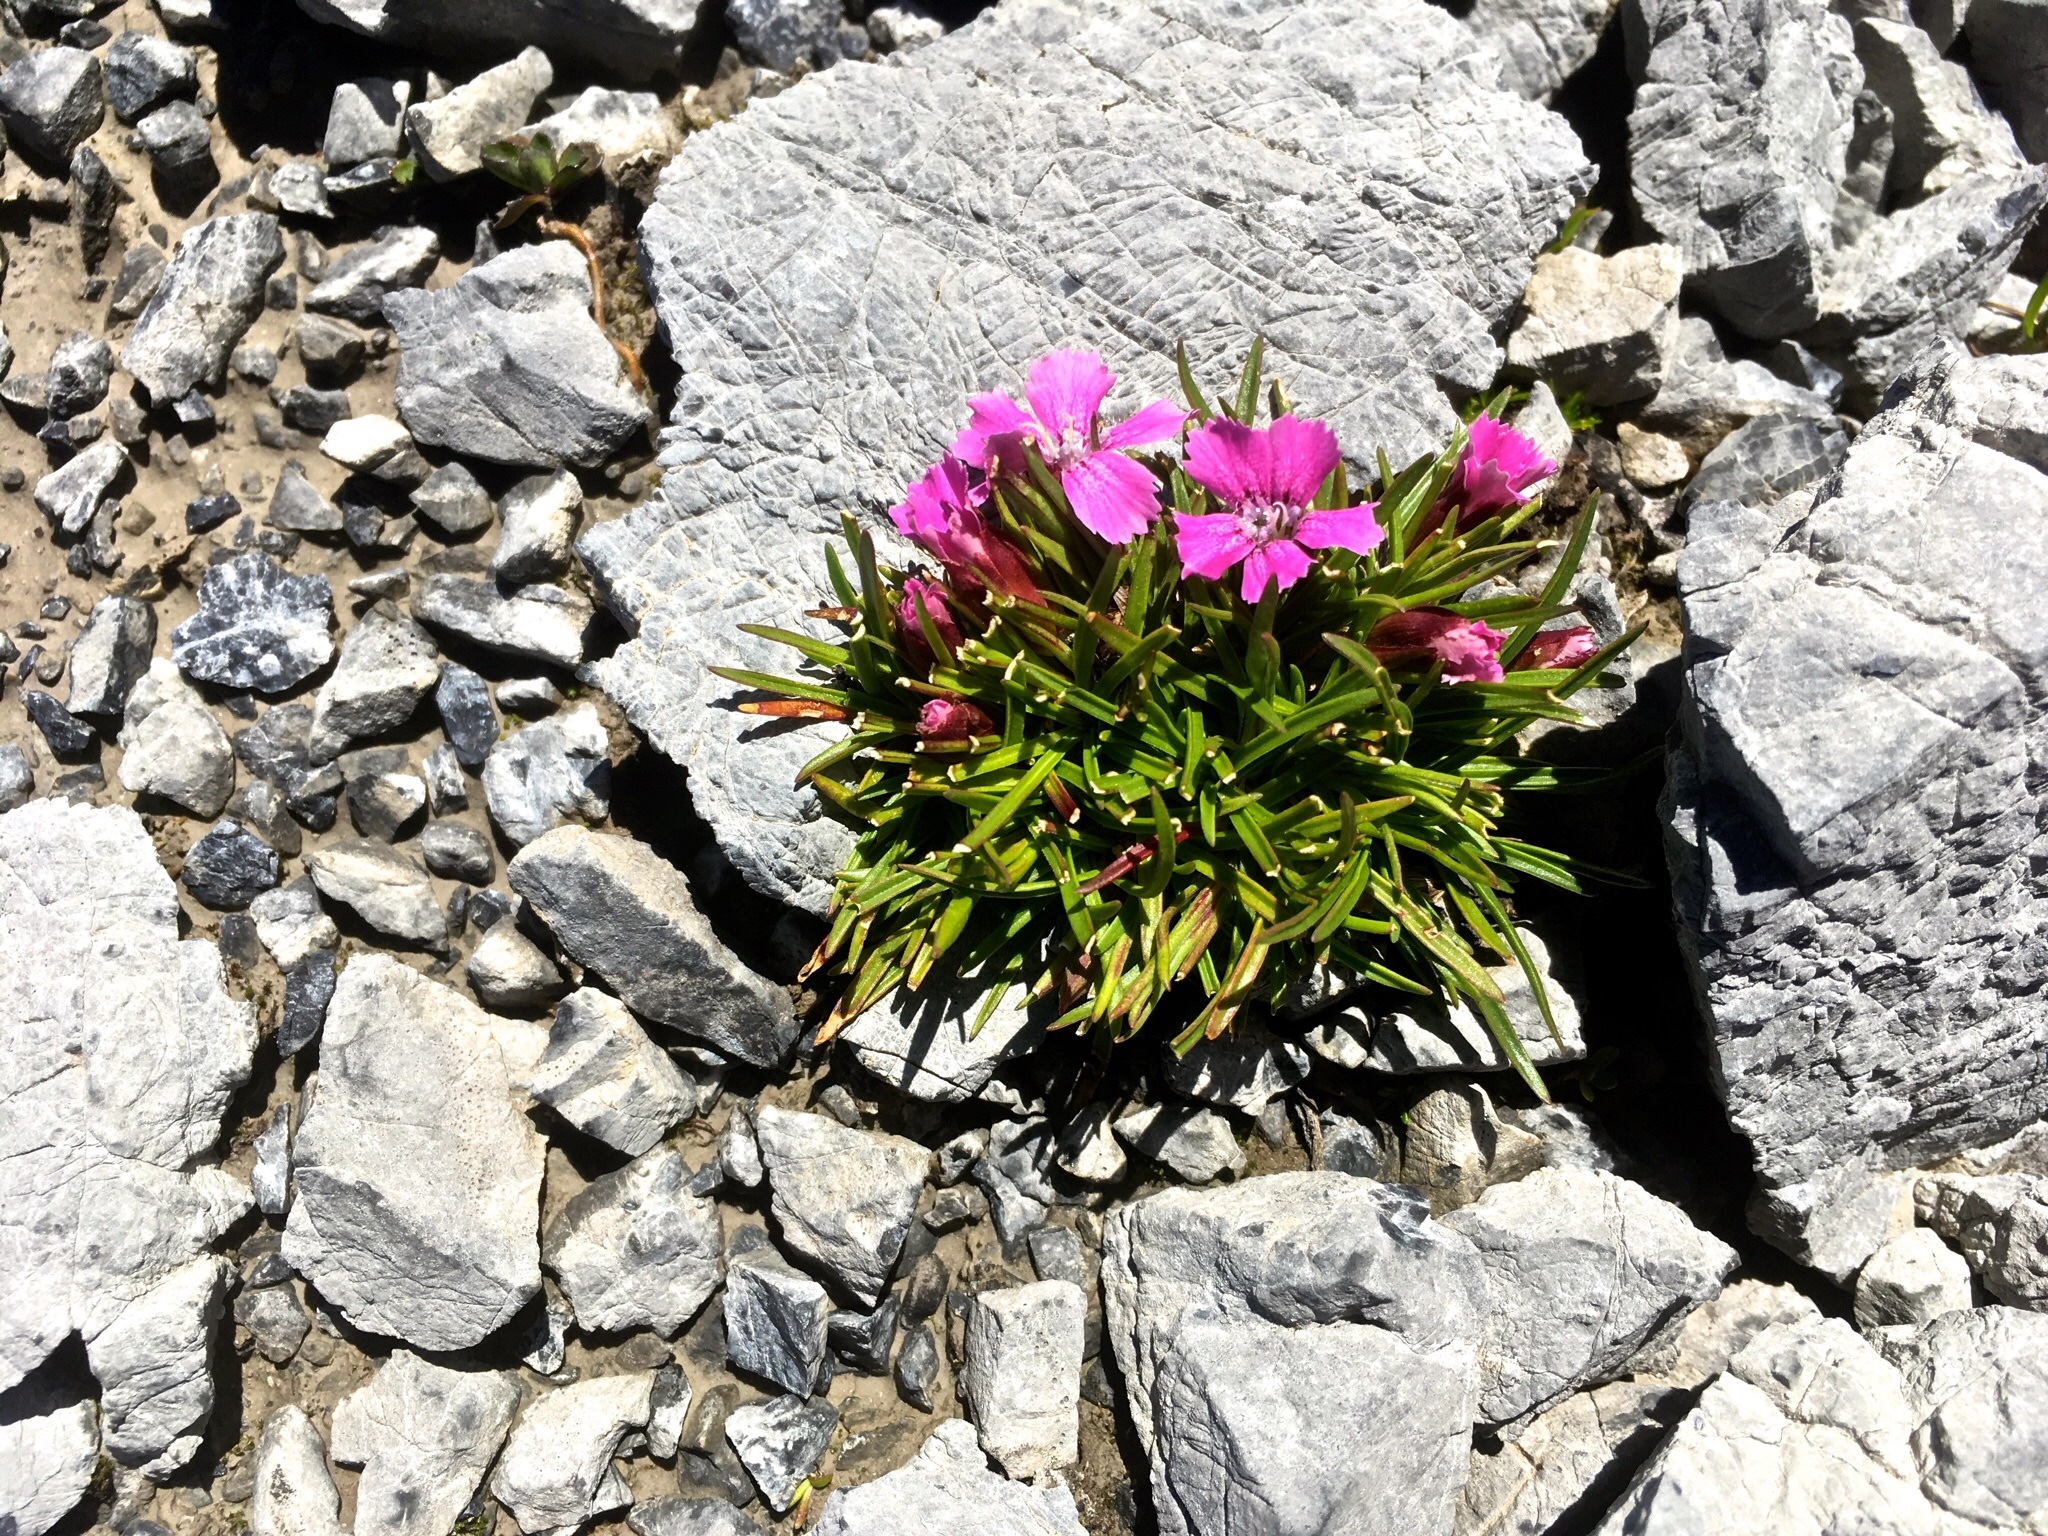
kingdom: Plantae
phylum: Tracheophyta
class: Magnoliopsida
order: Caryophyllales
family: Caryophyllaceae
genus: Dianthus
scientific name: Dianthus glacialis
